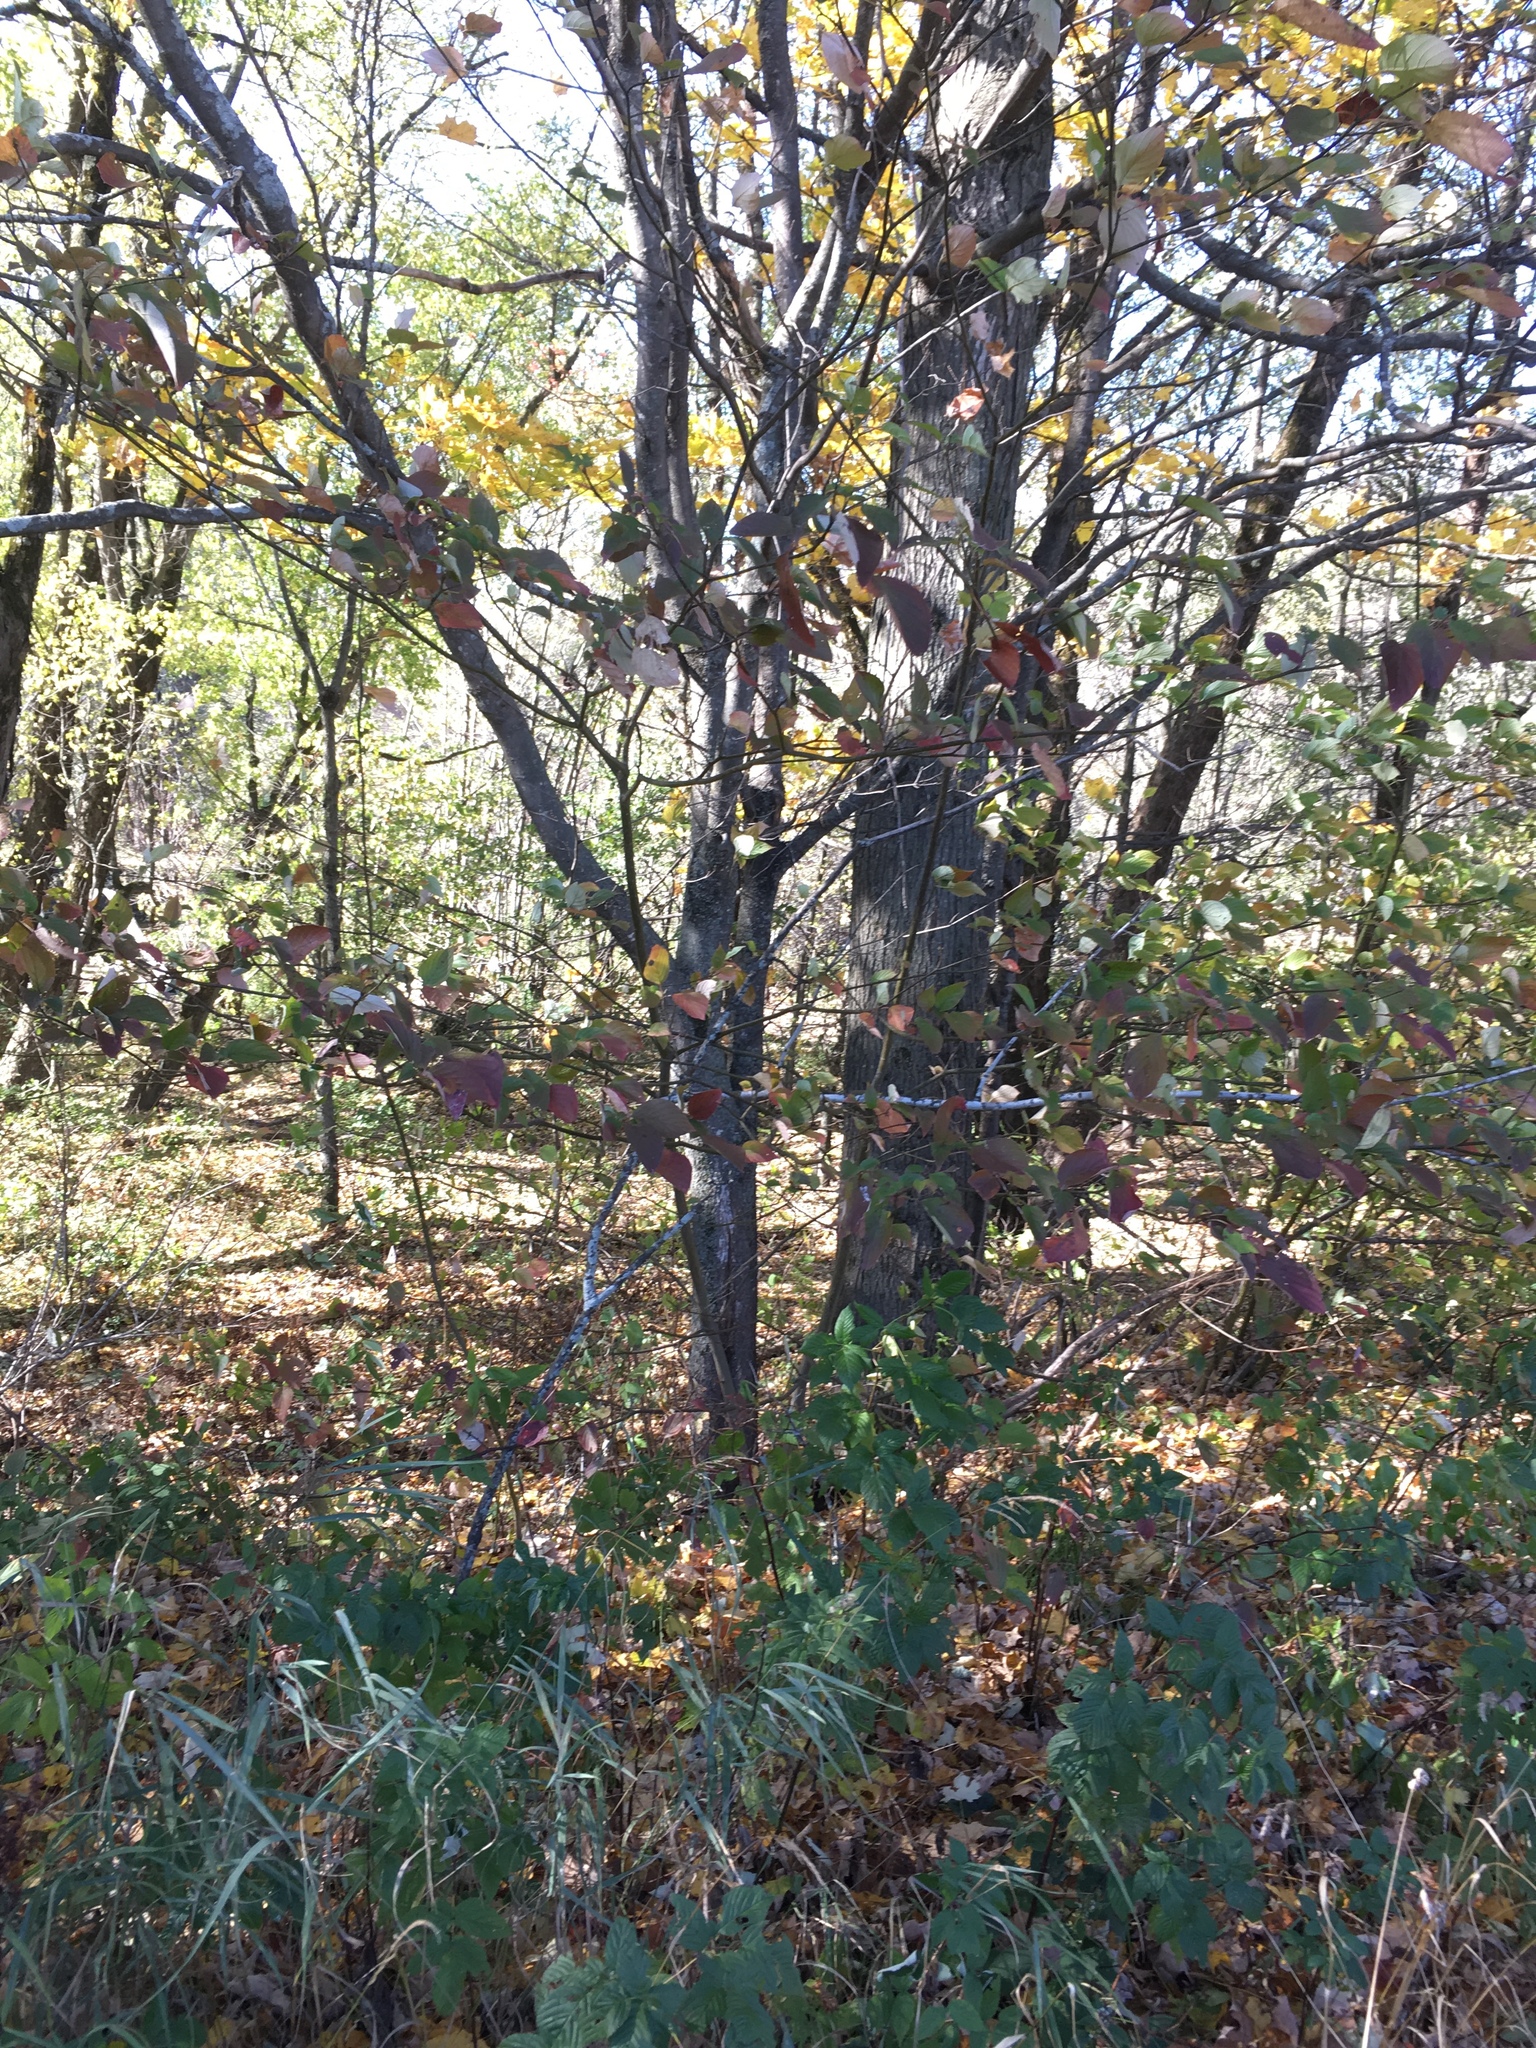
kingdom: Plantae
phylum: Tracheophyta
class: Magnoliopsida
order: Cornales
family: Cornaceae
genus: Cornus
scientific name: Cornus alternifolia
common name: Pagoda dogwood
